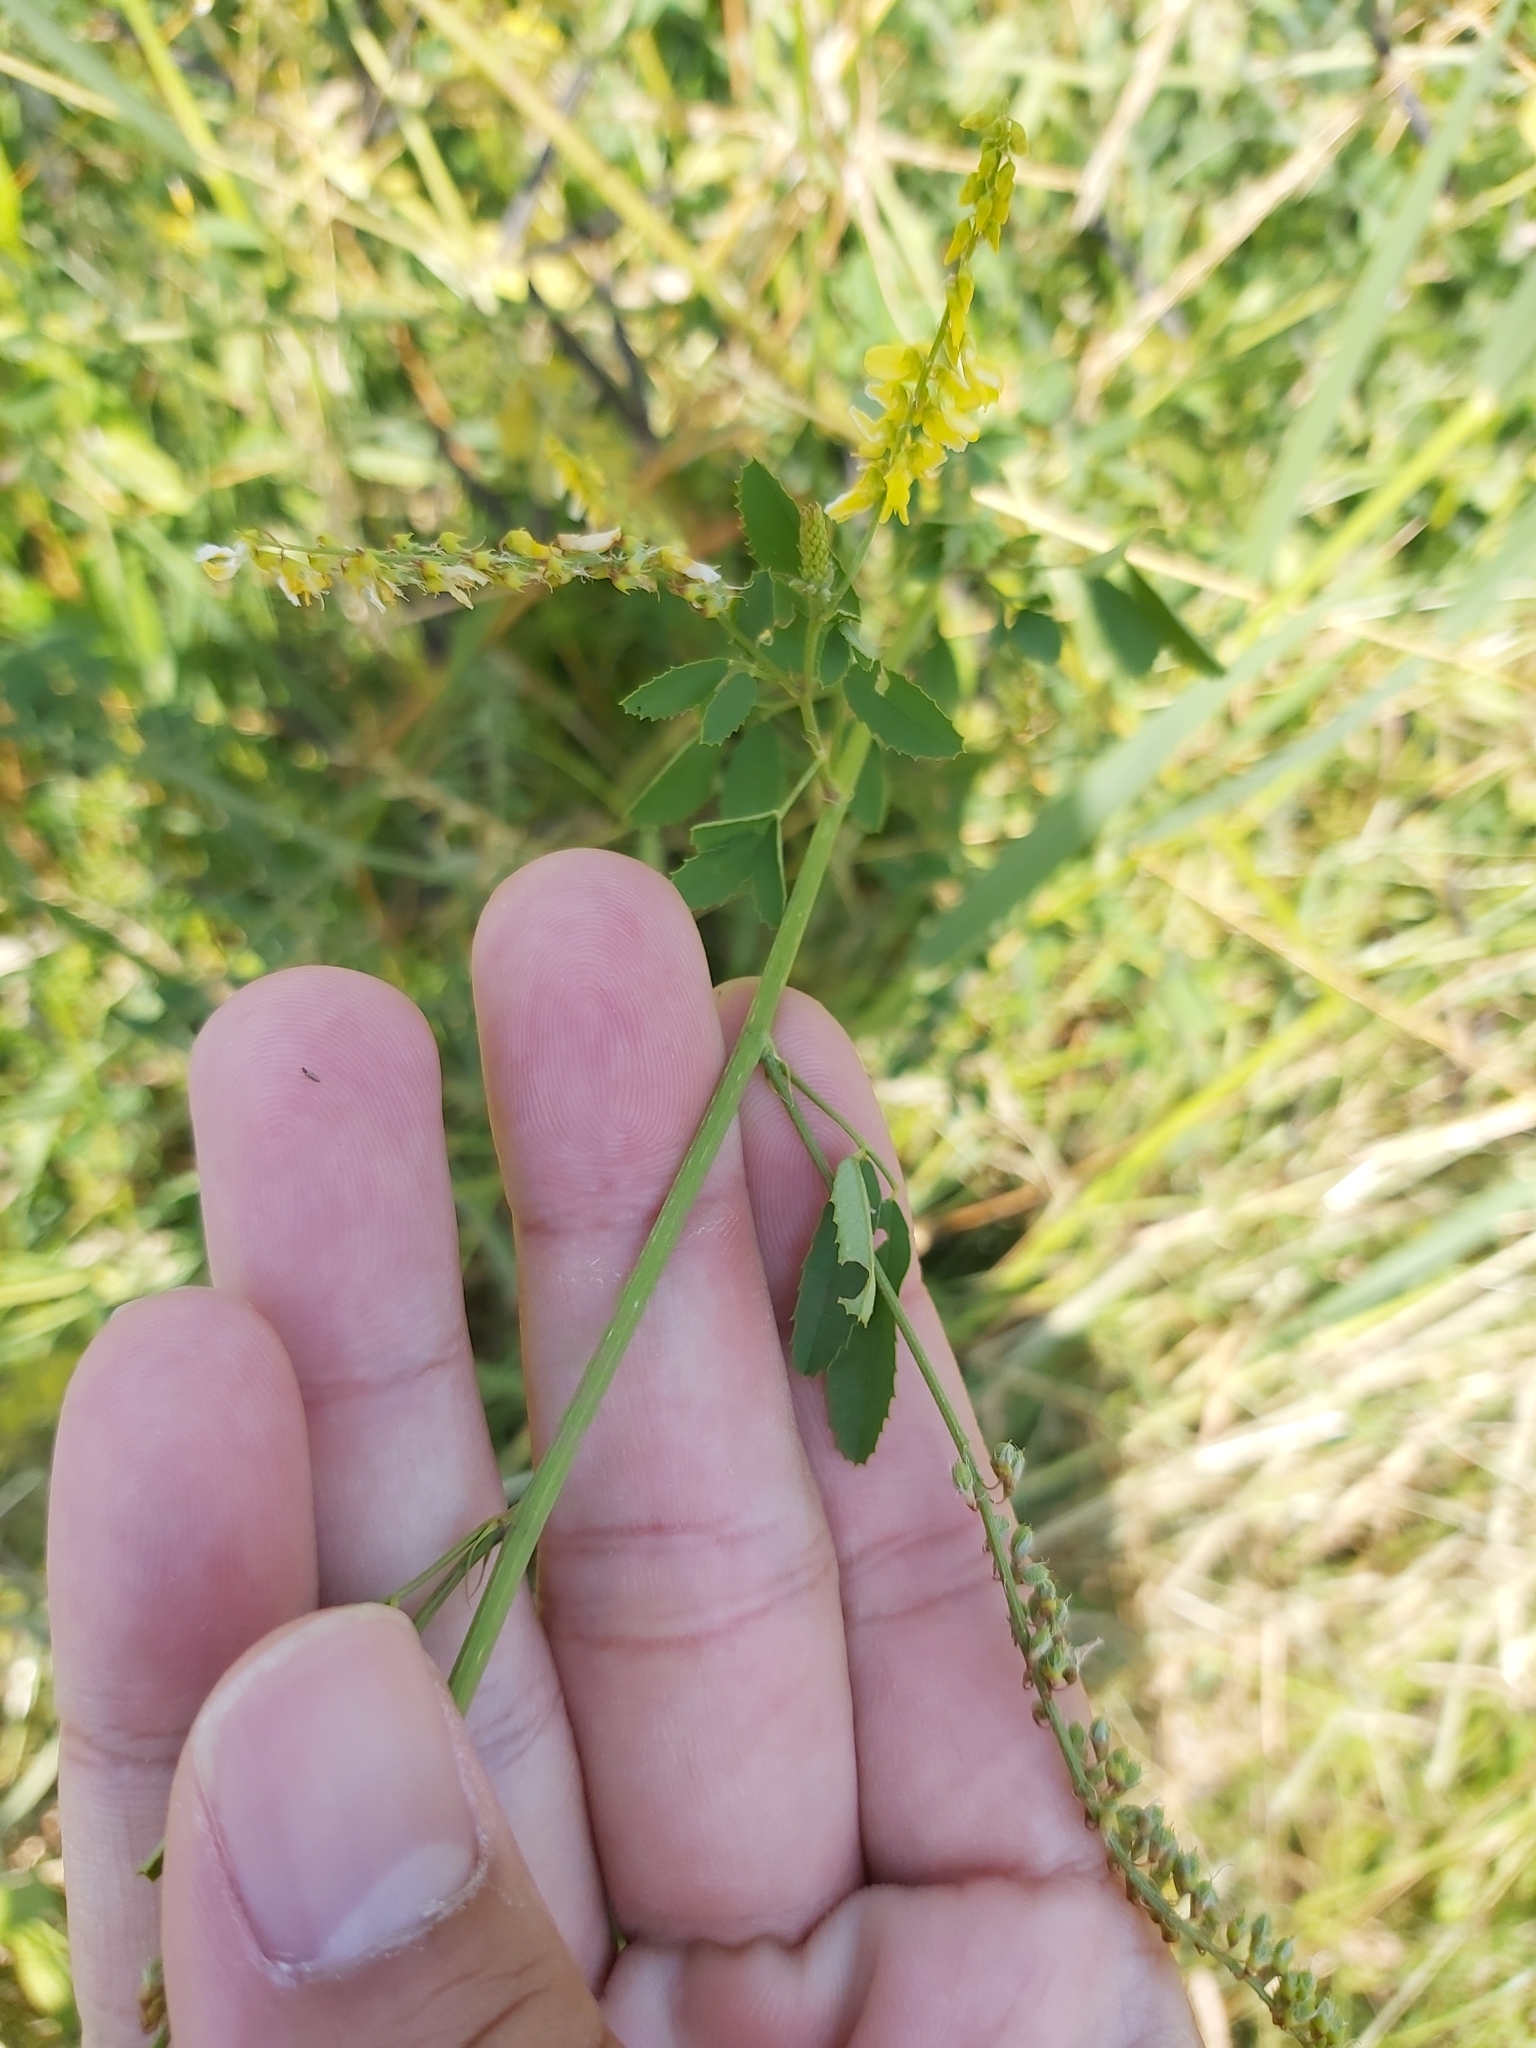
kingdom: Plantae
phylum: Tracheophyta
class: Magnoliopsida
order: Fabales
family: Fabaceae
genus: Melilotus
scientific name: Melilotus officinalis
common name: Sweetclover
